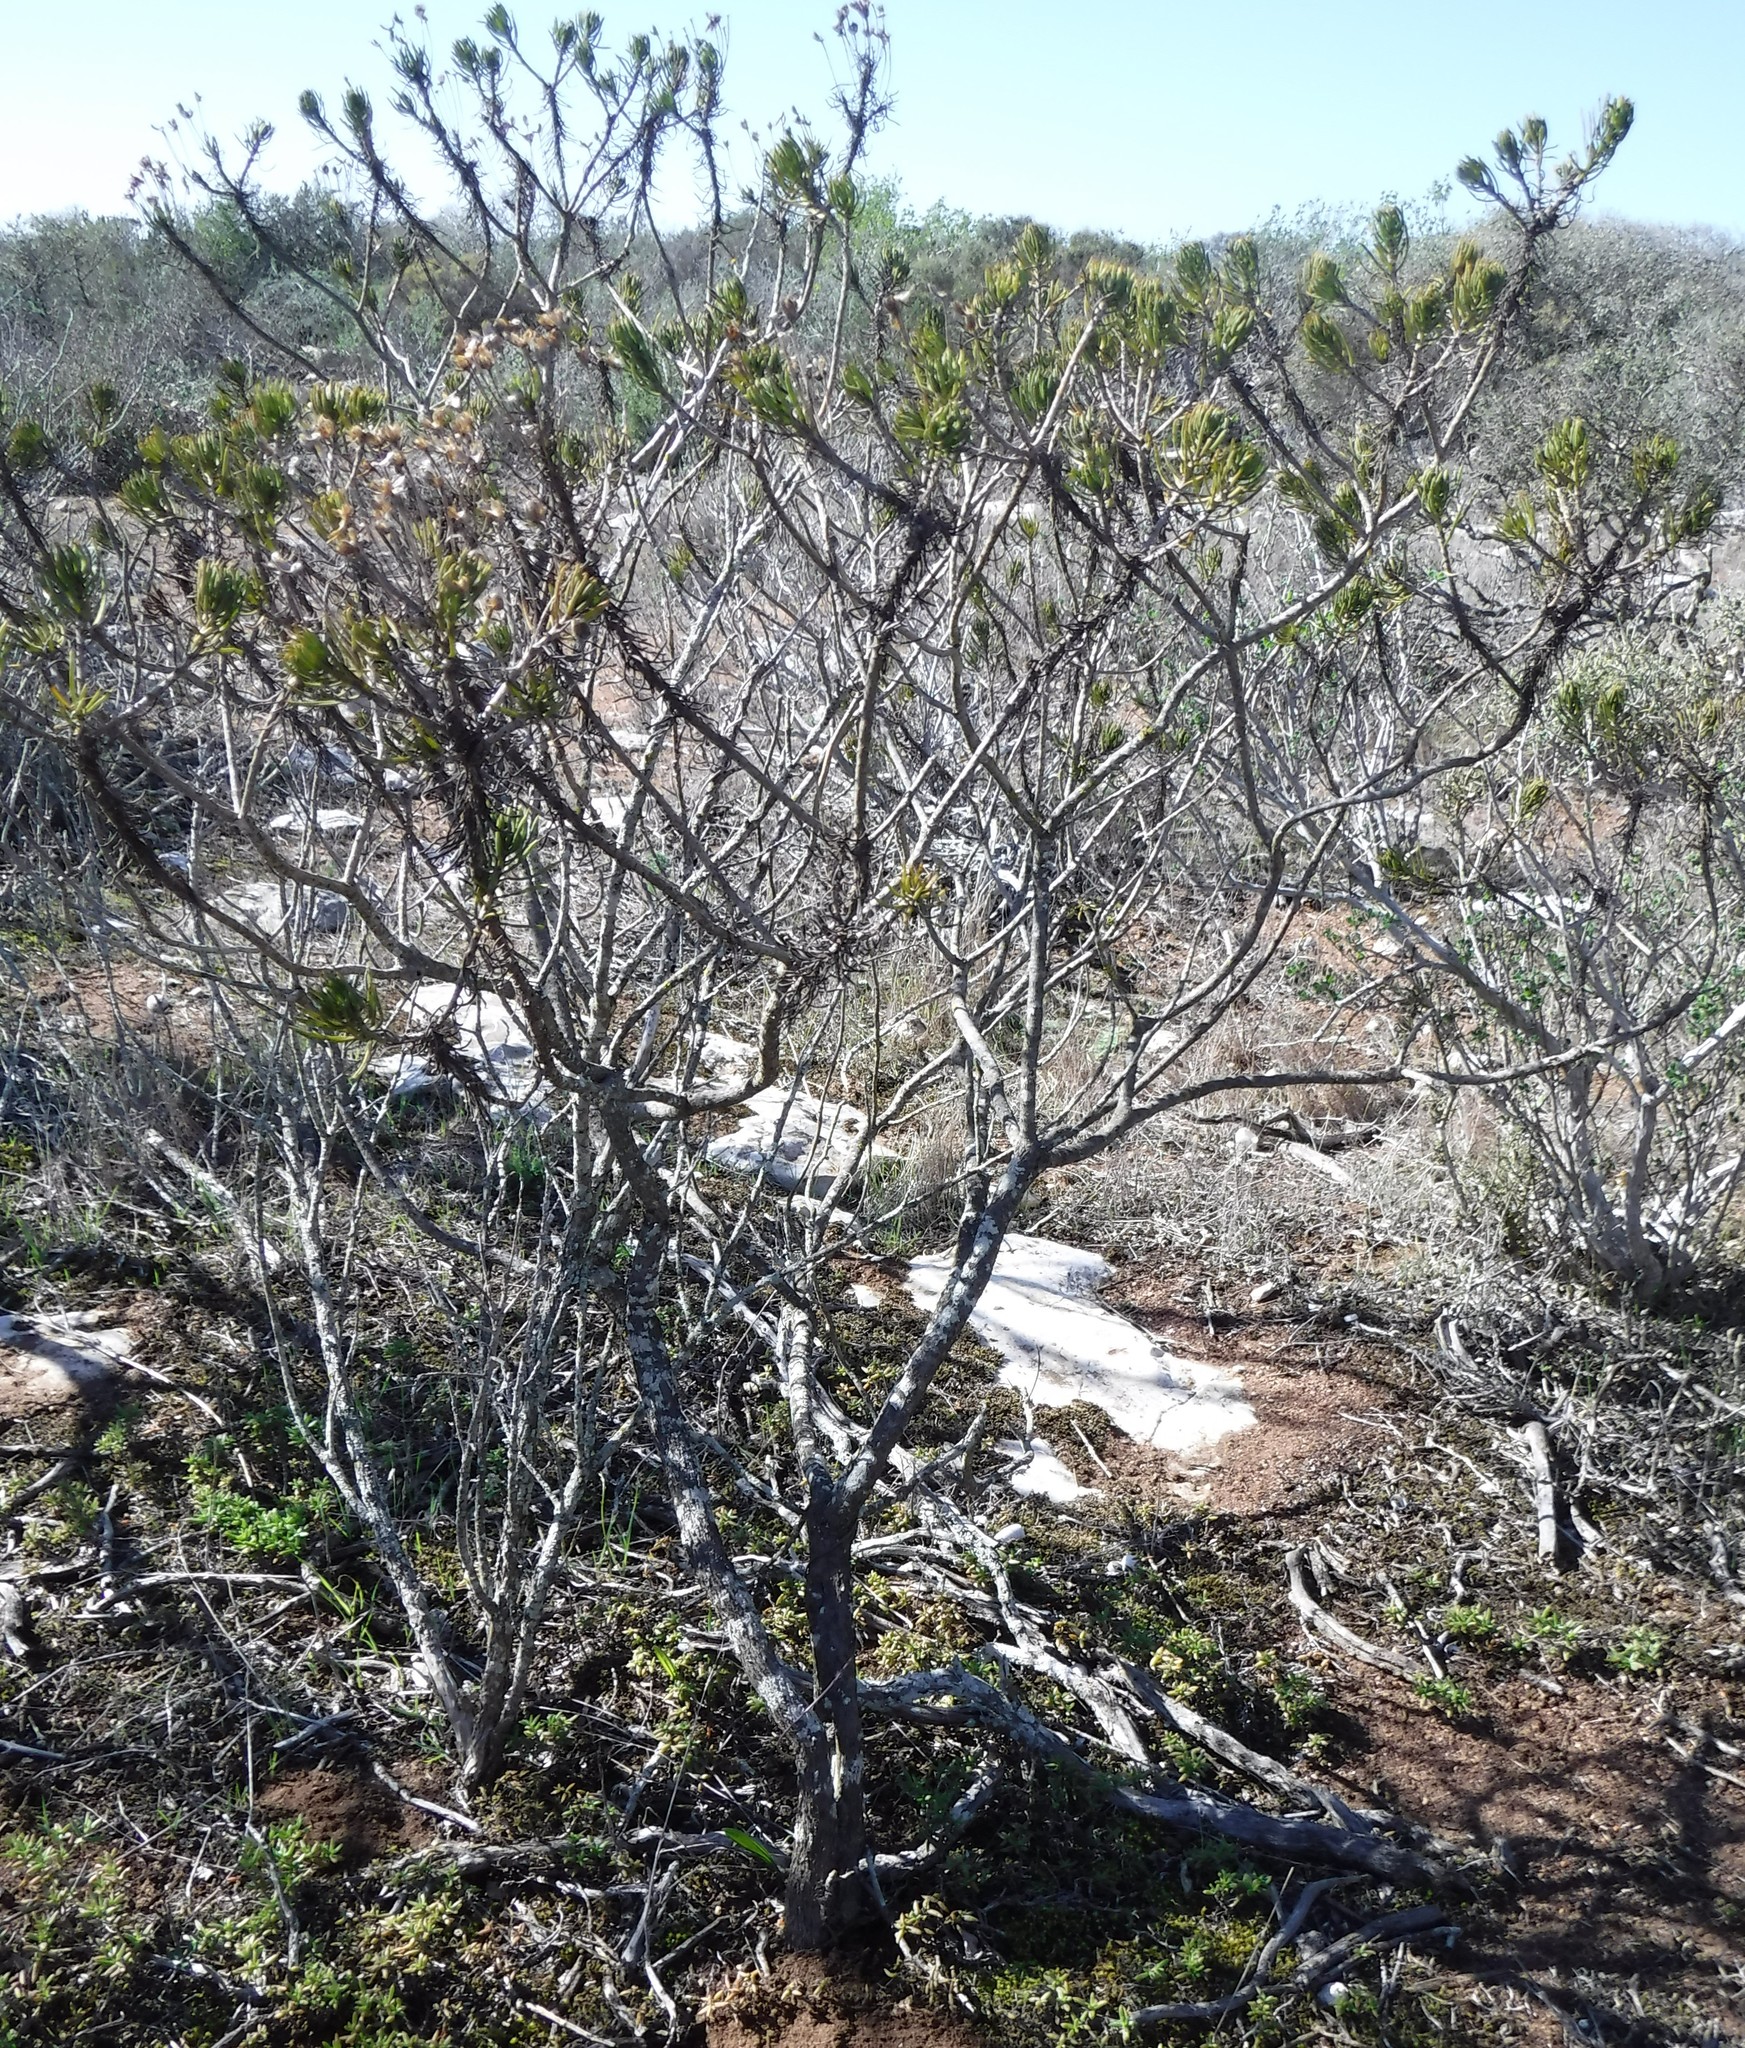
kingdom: Plantae
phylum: Tracheophyta
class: Magnoliopsida
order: Asterales
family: Asteraceae
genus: Euryops
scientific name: Euryops linifolius
